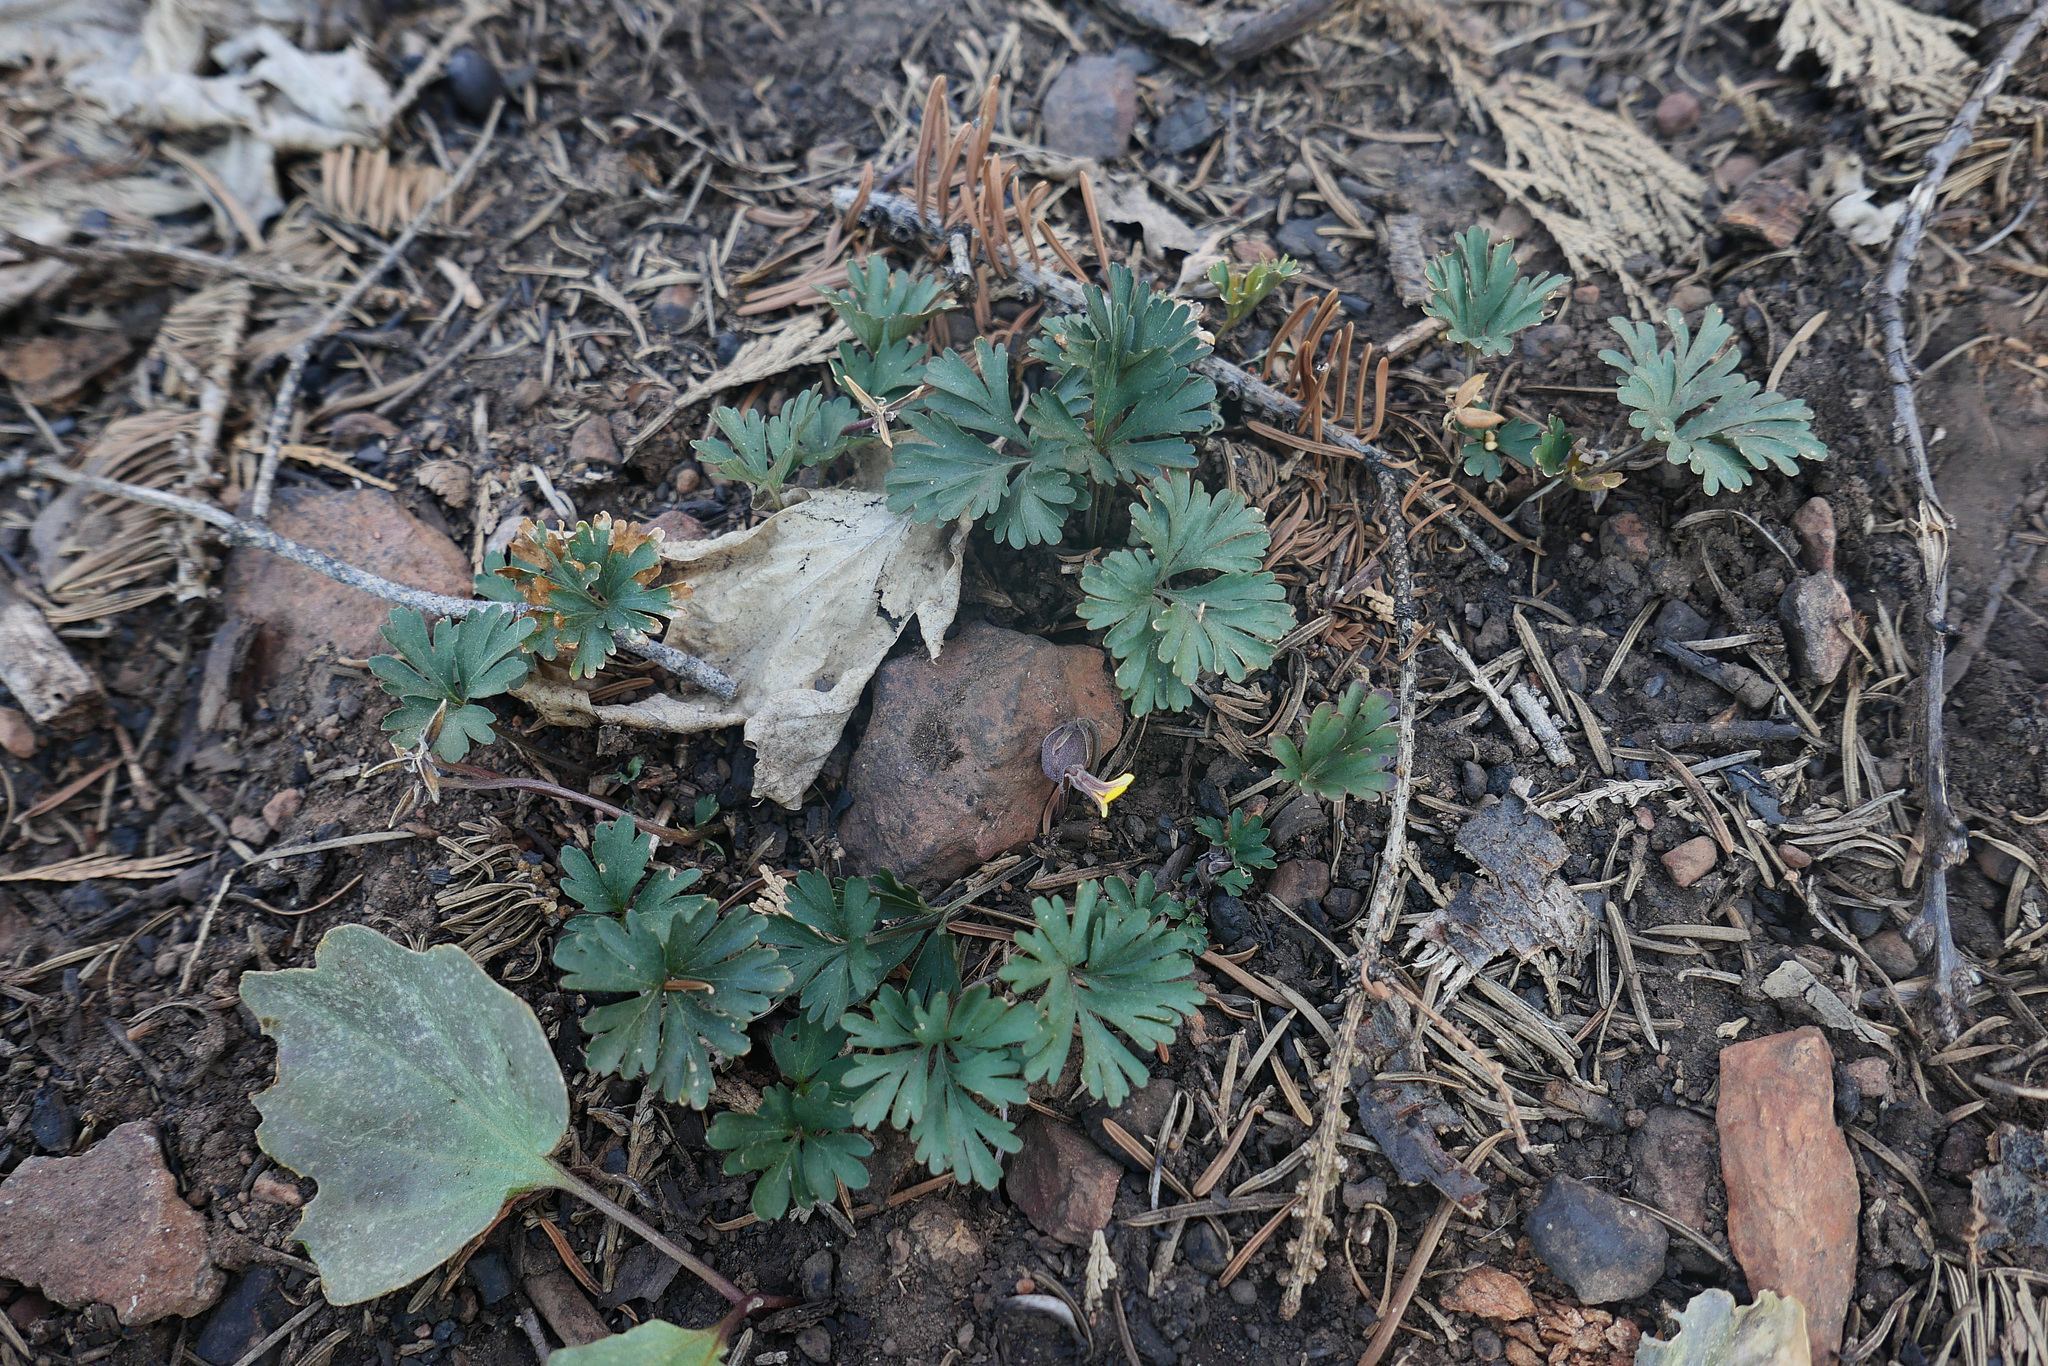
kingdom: Plantae
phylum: Tracheophyta
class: Magnoliopsida
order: Malpighiales
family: Violaceae
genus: Viola
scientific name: Viola sheltonii
